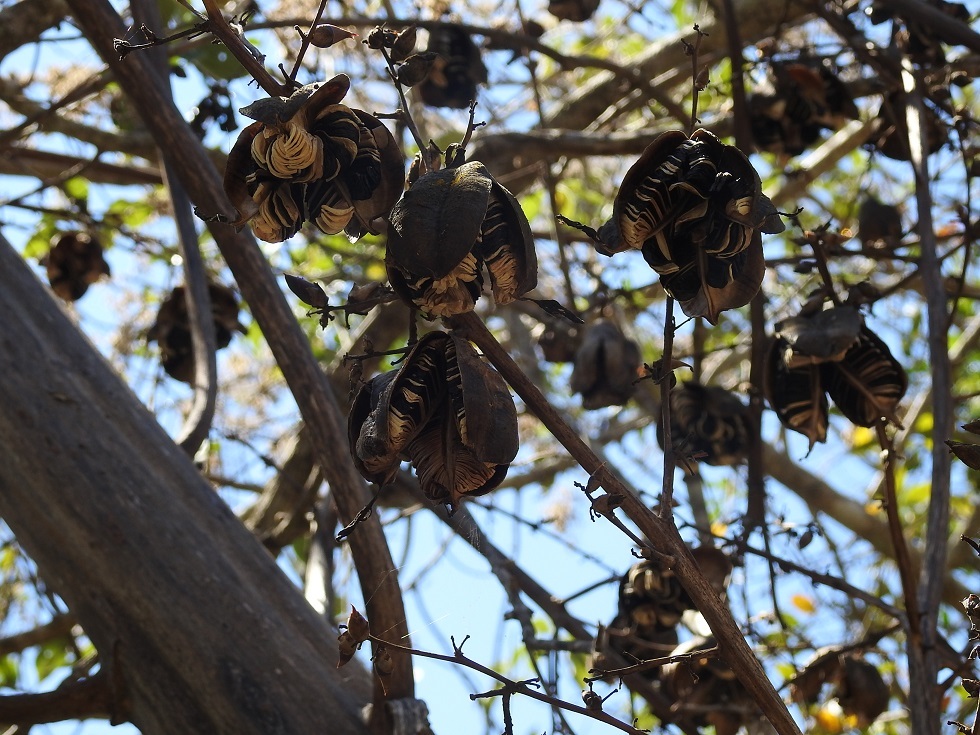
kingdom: Plantae
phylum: Tracheophyta
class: Liliopsida
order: Asparagales
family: Asparagaceae
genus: Furcraea
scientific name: Furcraea guatemalensis
